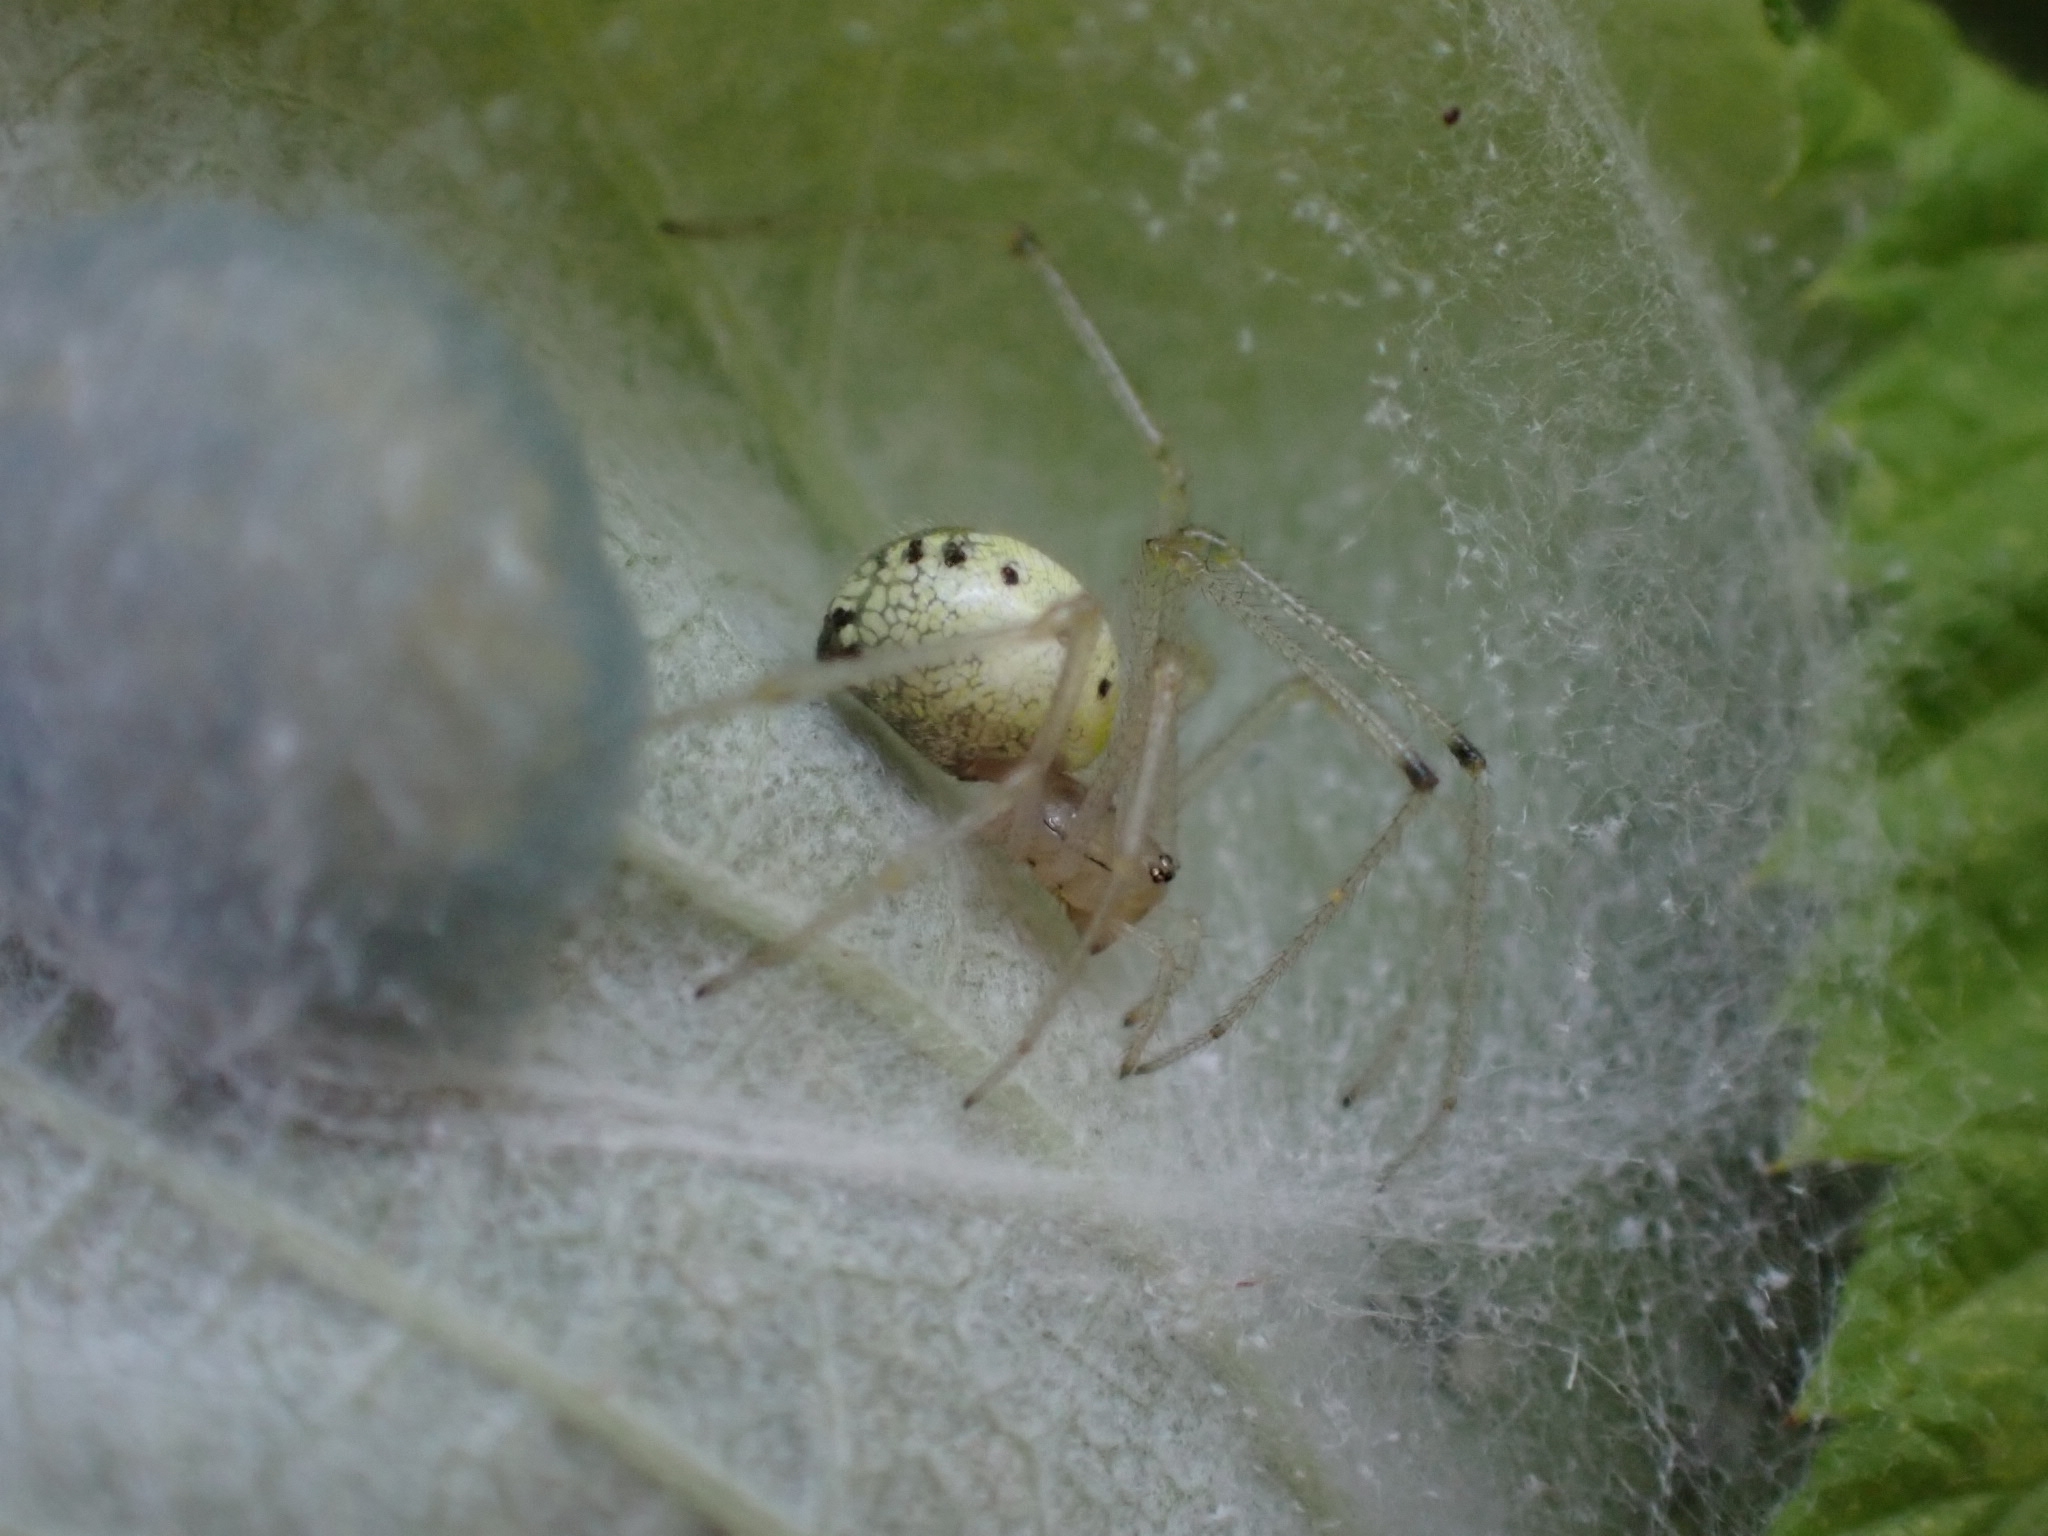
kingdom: Animalia
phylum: Arthropoda
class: Arachnida
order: Araneae
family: Theridiidae
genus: Enoplognatha
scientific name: Enoplognatha ovata
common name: Common candy-striped spider
